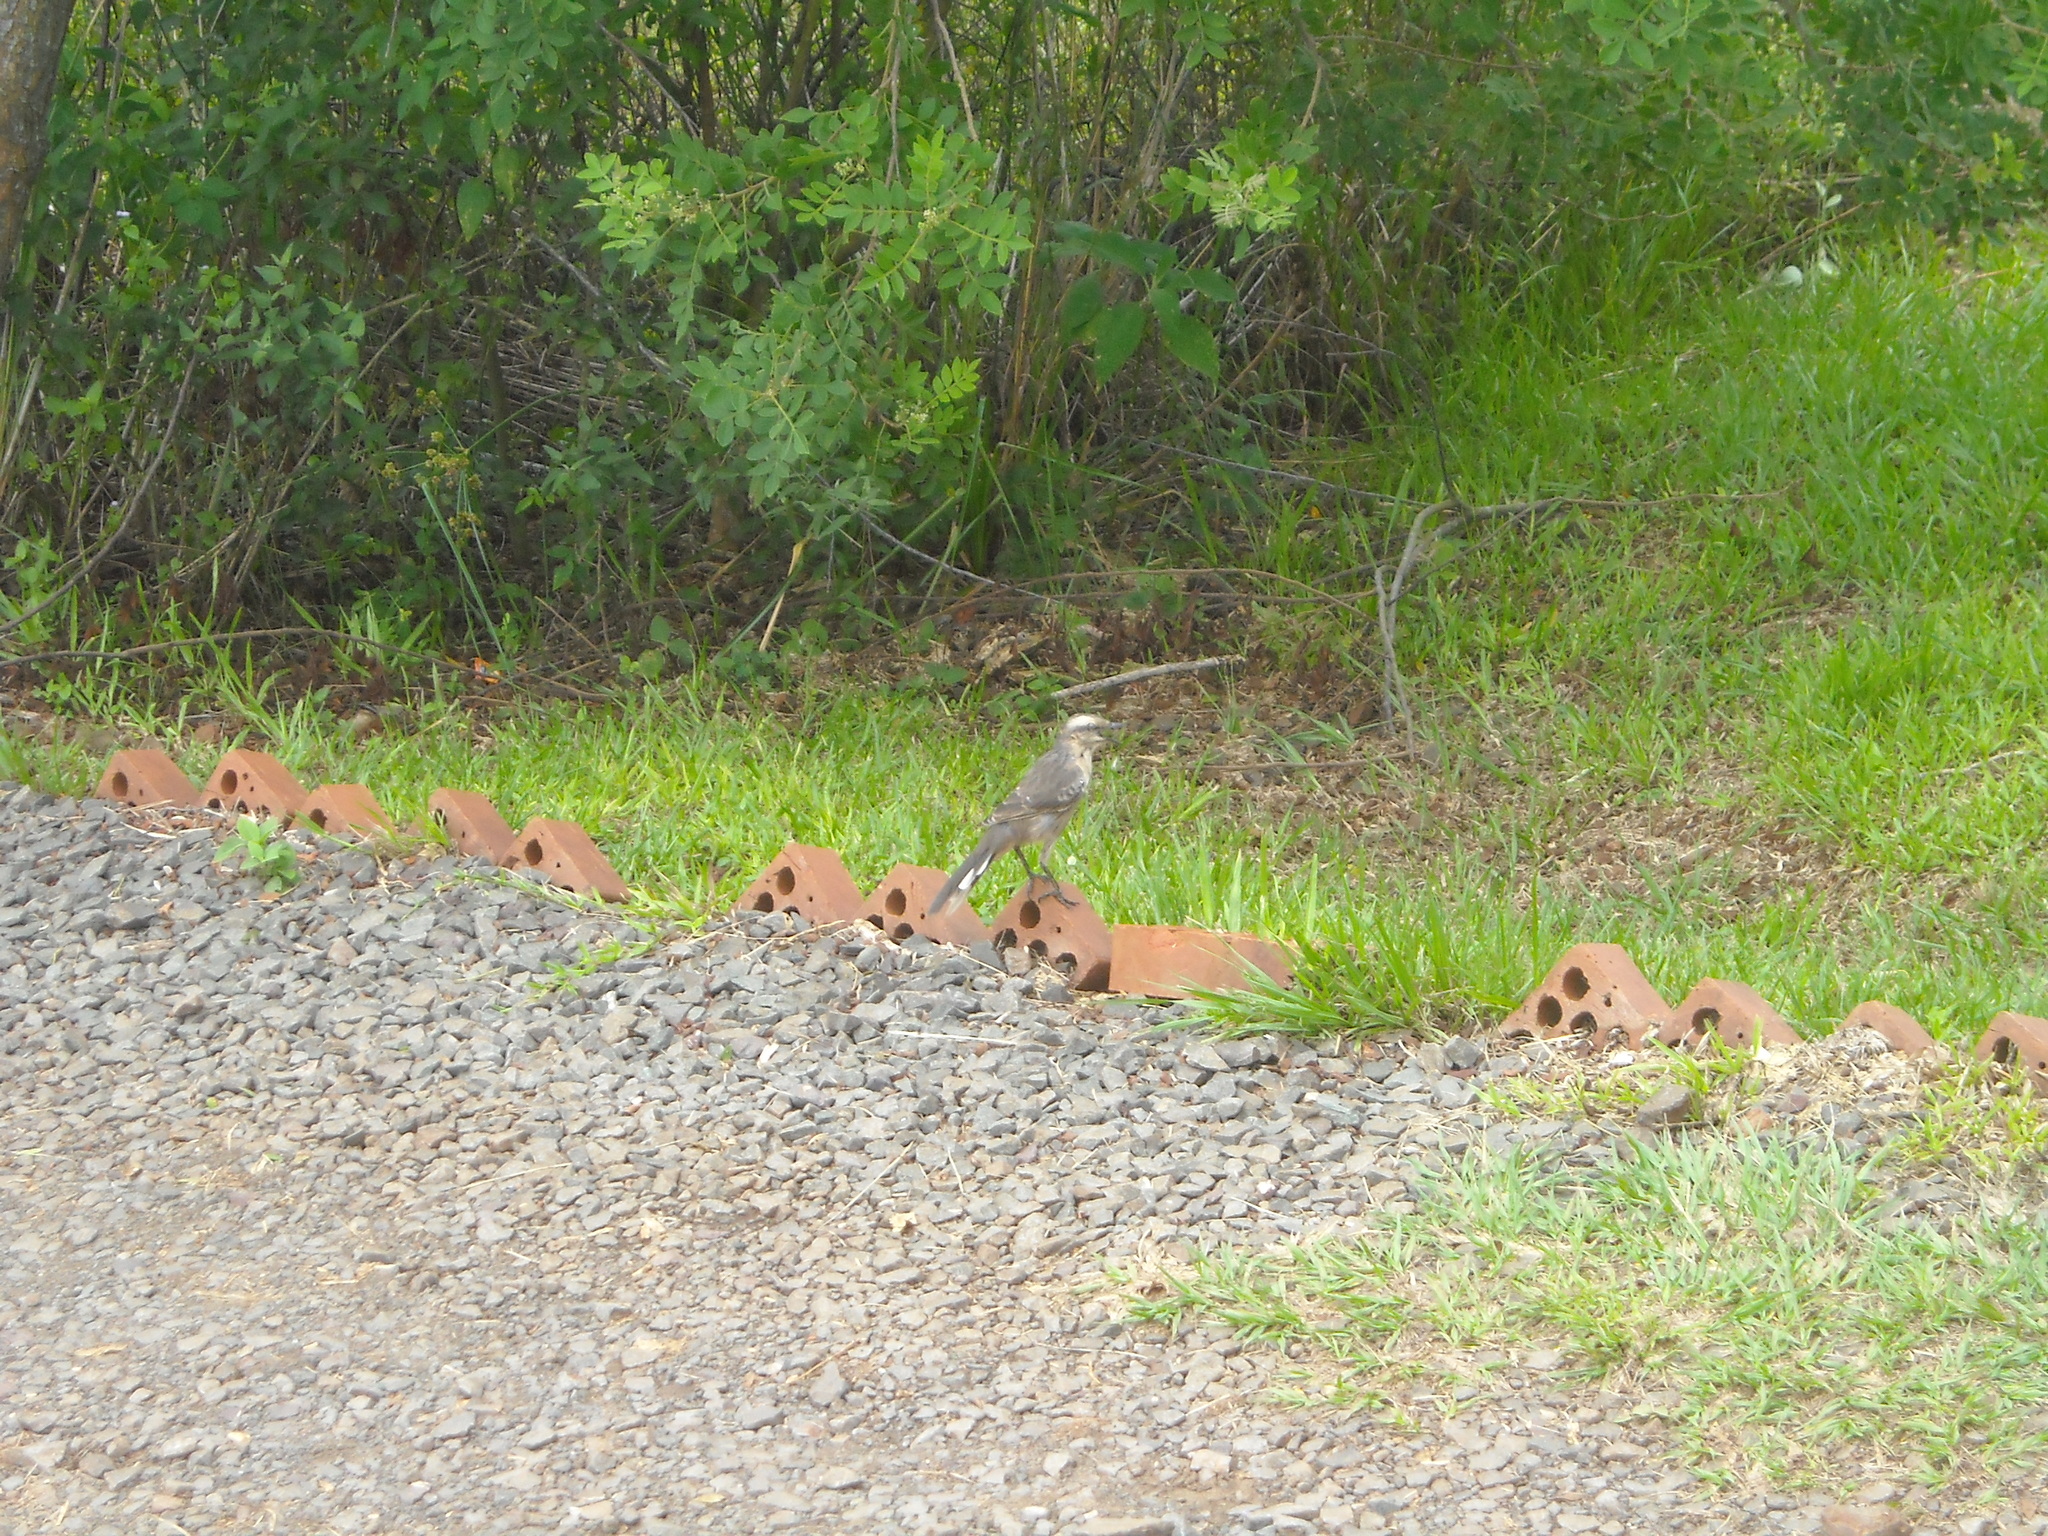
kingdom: Animalia
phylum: Chordata
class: Aves
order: Passeriformes
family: Mimidae
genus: Mimus
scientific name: Mimus saturninus
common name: Chalk-browed mockingbird
